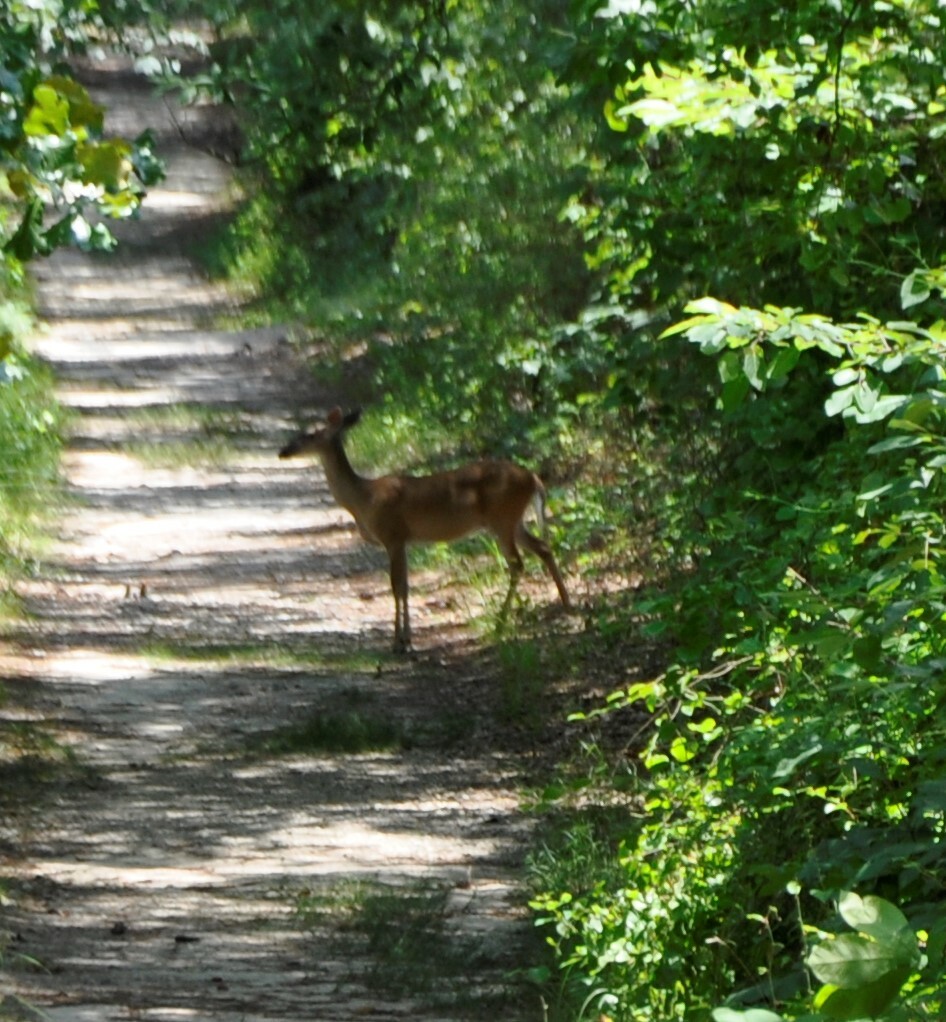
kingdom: Animalia
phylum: Chordata
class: Mammalia
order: Artiodactyla
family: Cervidae
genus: Odocoileus
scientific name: Odocoileus virginianus
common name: White-tailed deer
